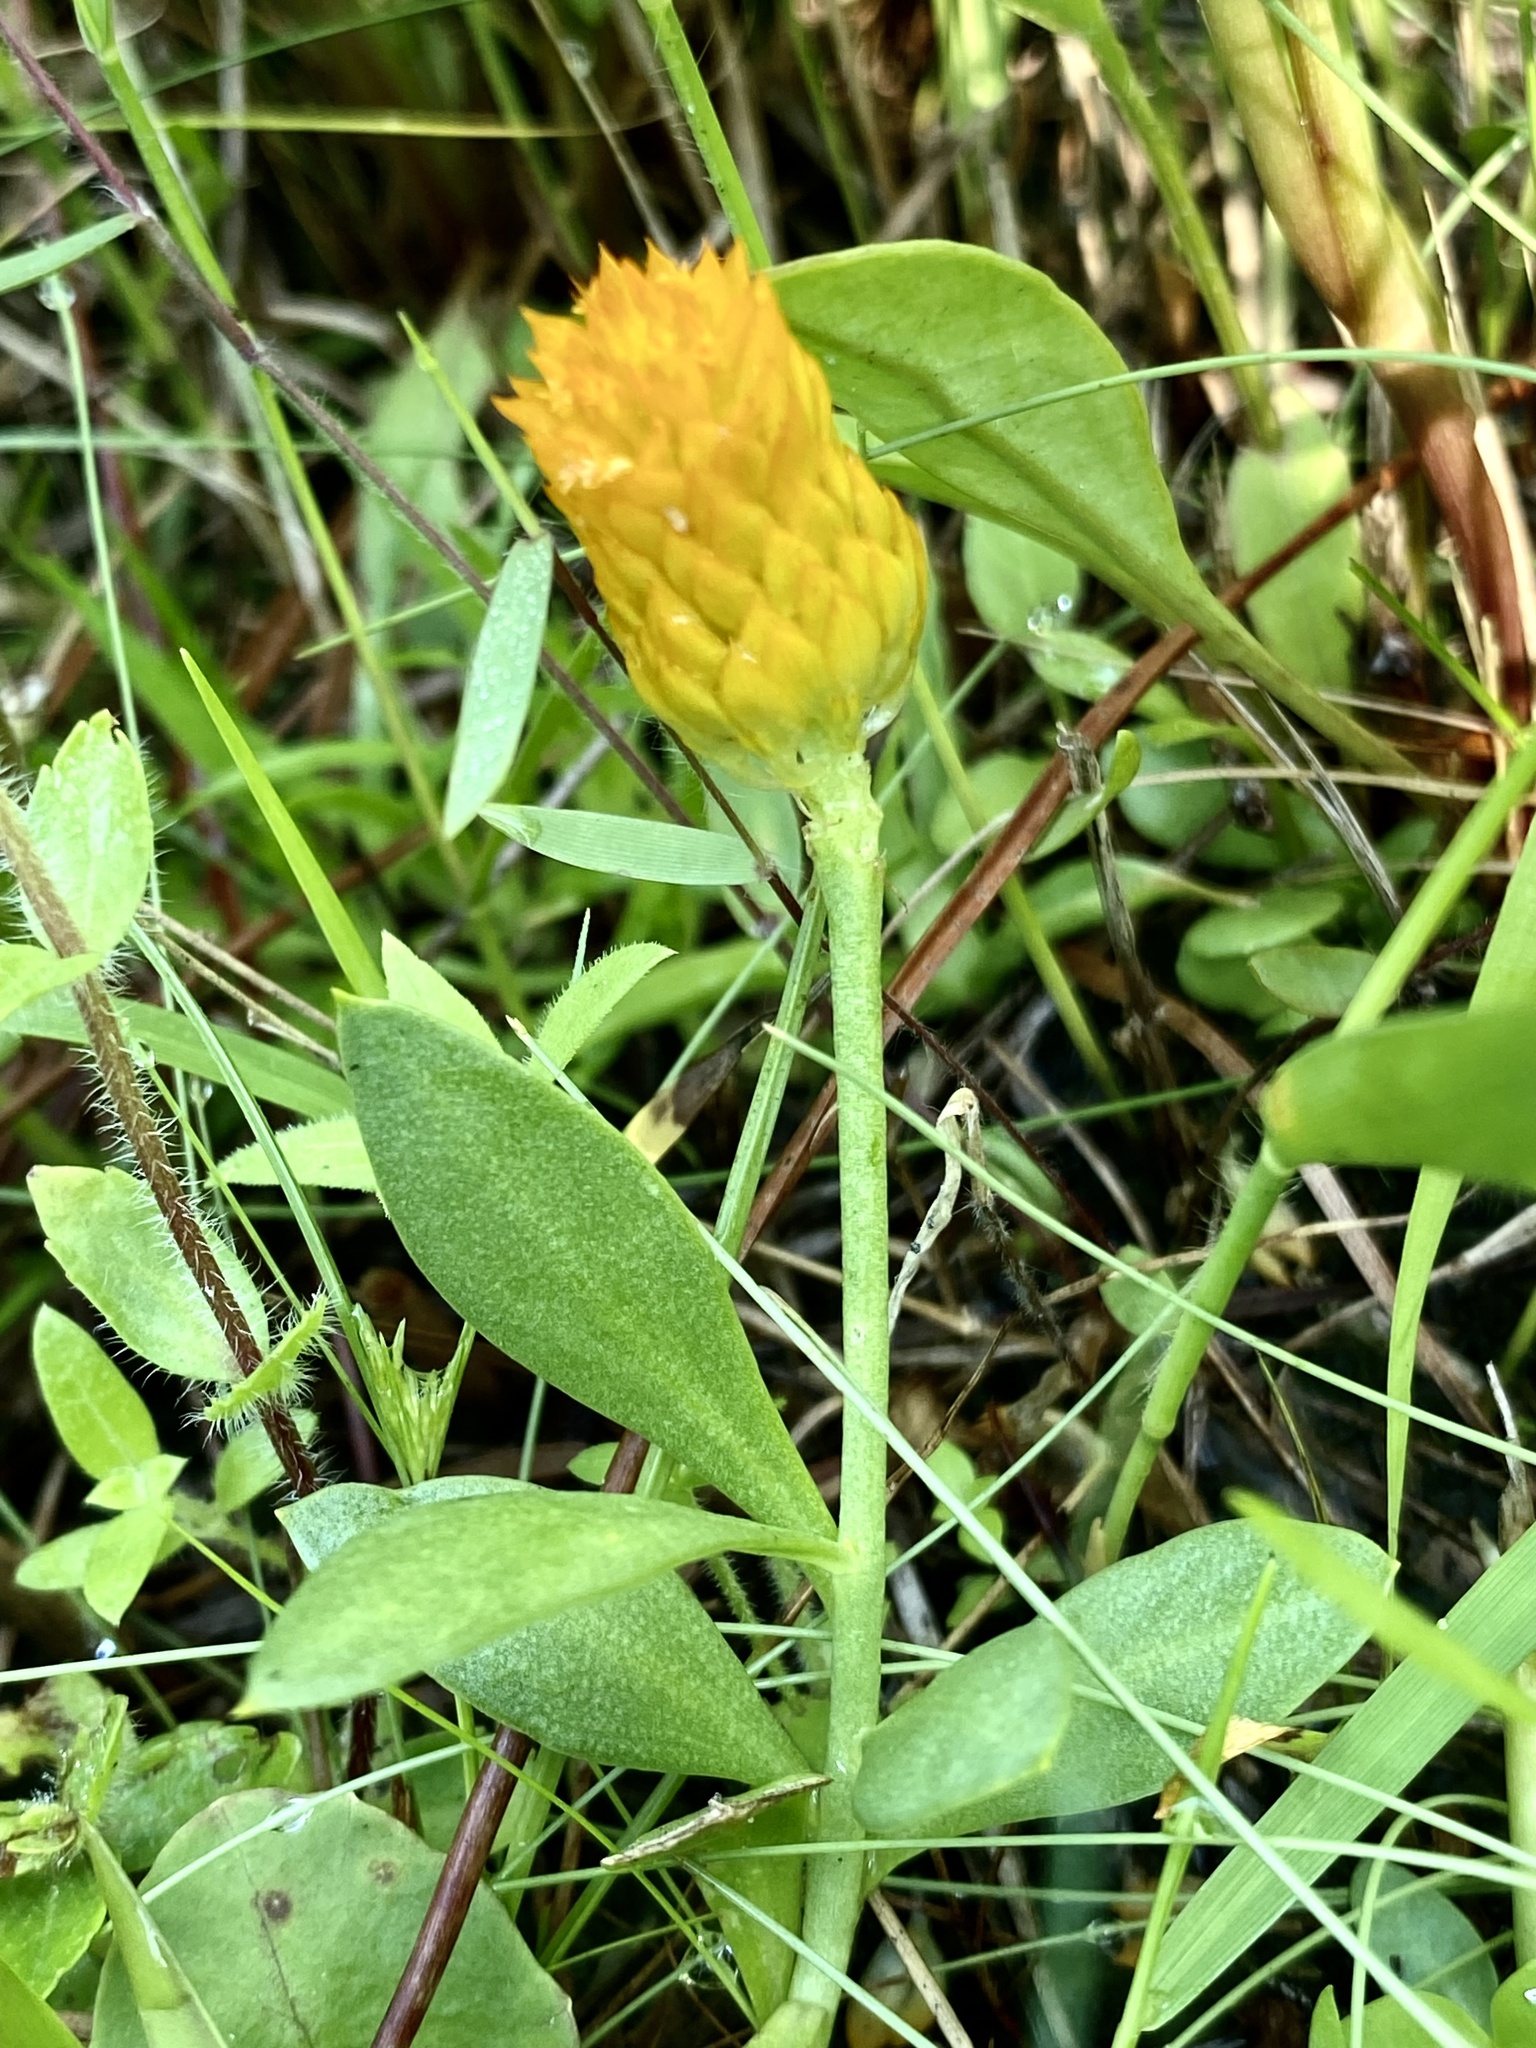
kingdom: Plantae
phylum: Tracheophyta
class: Magnoliopsida
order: Fabales
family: Polygalaceae
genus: Polygala
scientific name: Polygala lutea
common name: Orange milkwort
